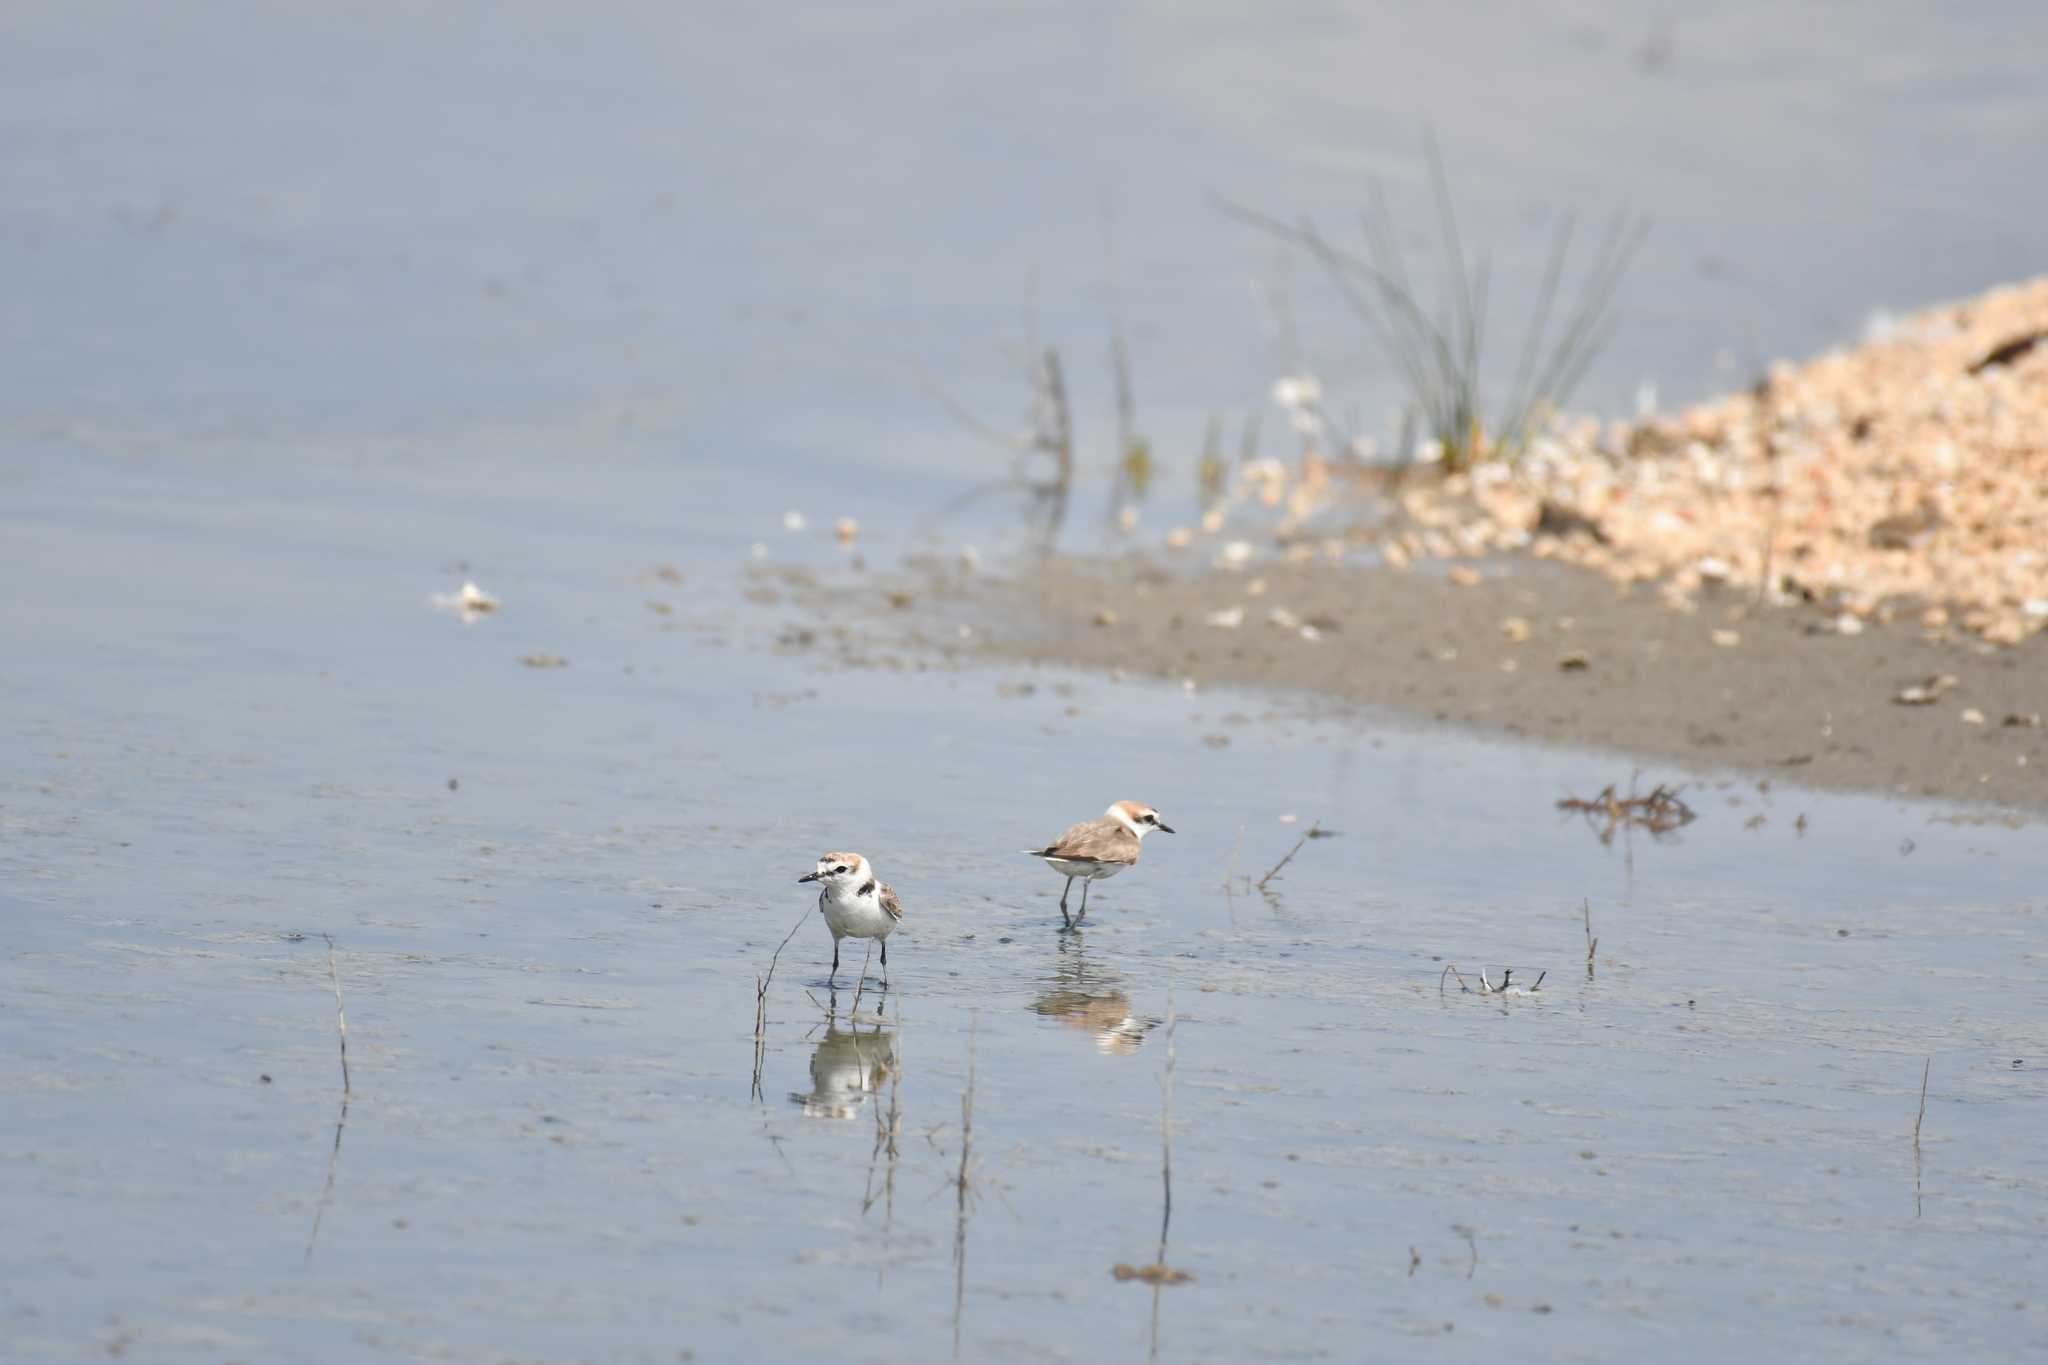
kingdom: Animalia
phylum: Chordata
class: Aves
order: Charadriiformes
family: Charadriidae
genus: Charadrius
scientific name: Charadrius alexandrinus
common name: Kentish plover
